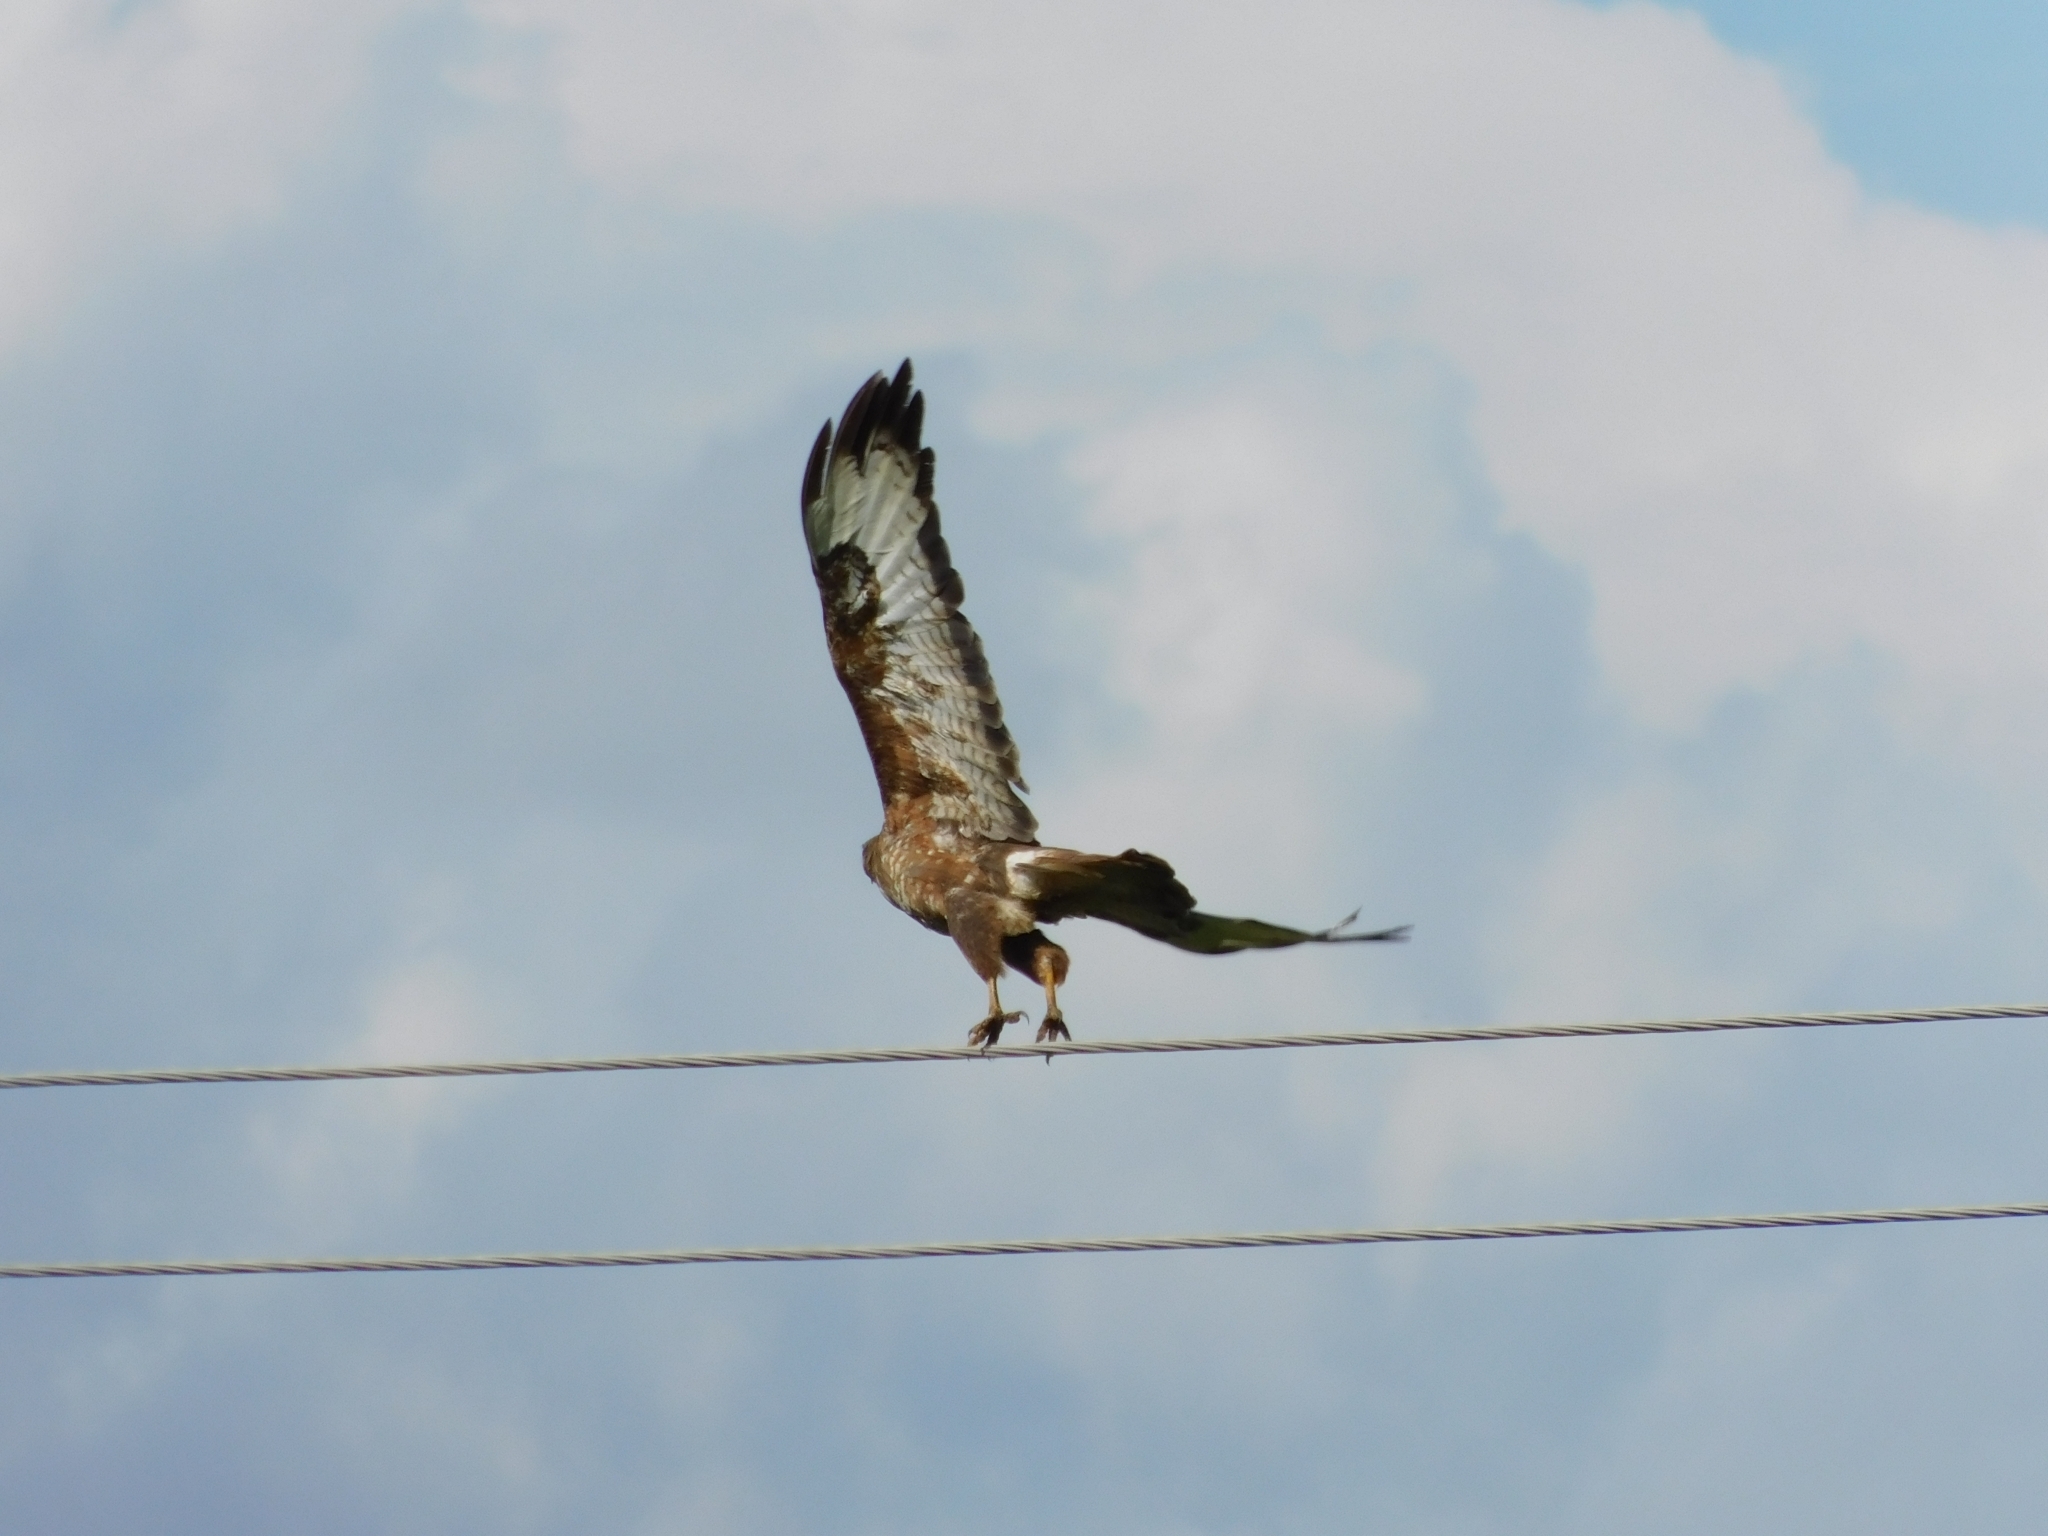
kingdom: Animalia
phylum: Chordata
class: Aves
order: Accipitriformes
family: Accipitridae
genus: Buteo
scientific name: Buteo buteo
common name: Common buzzard
